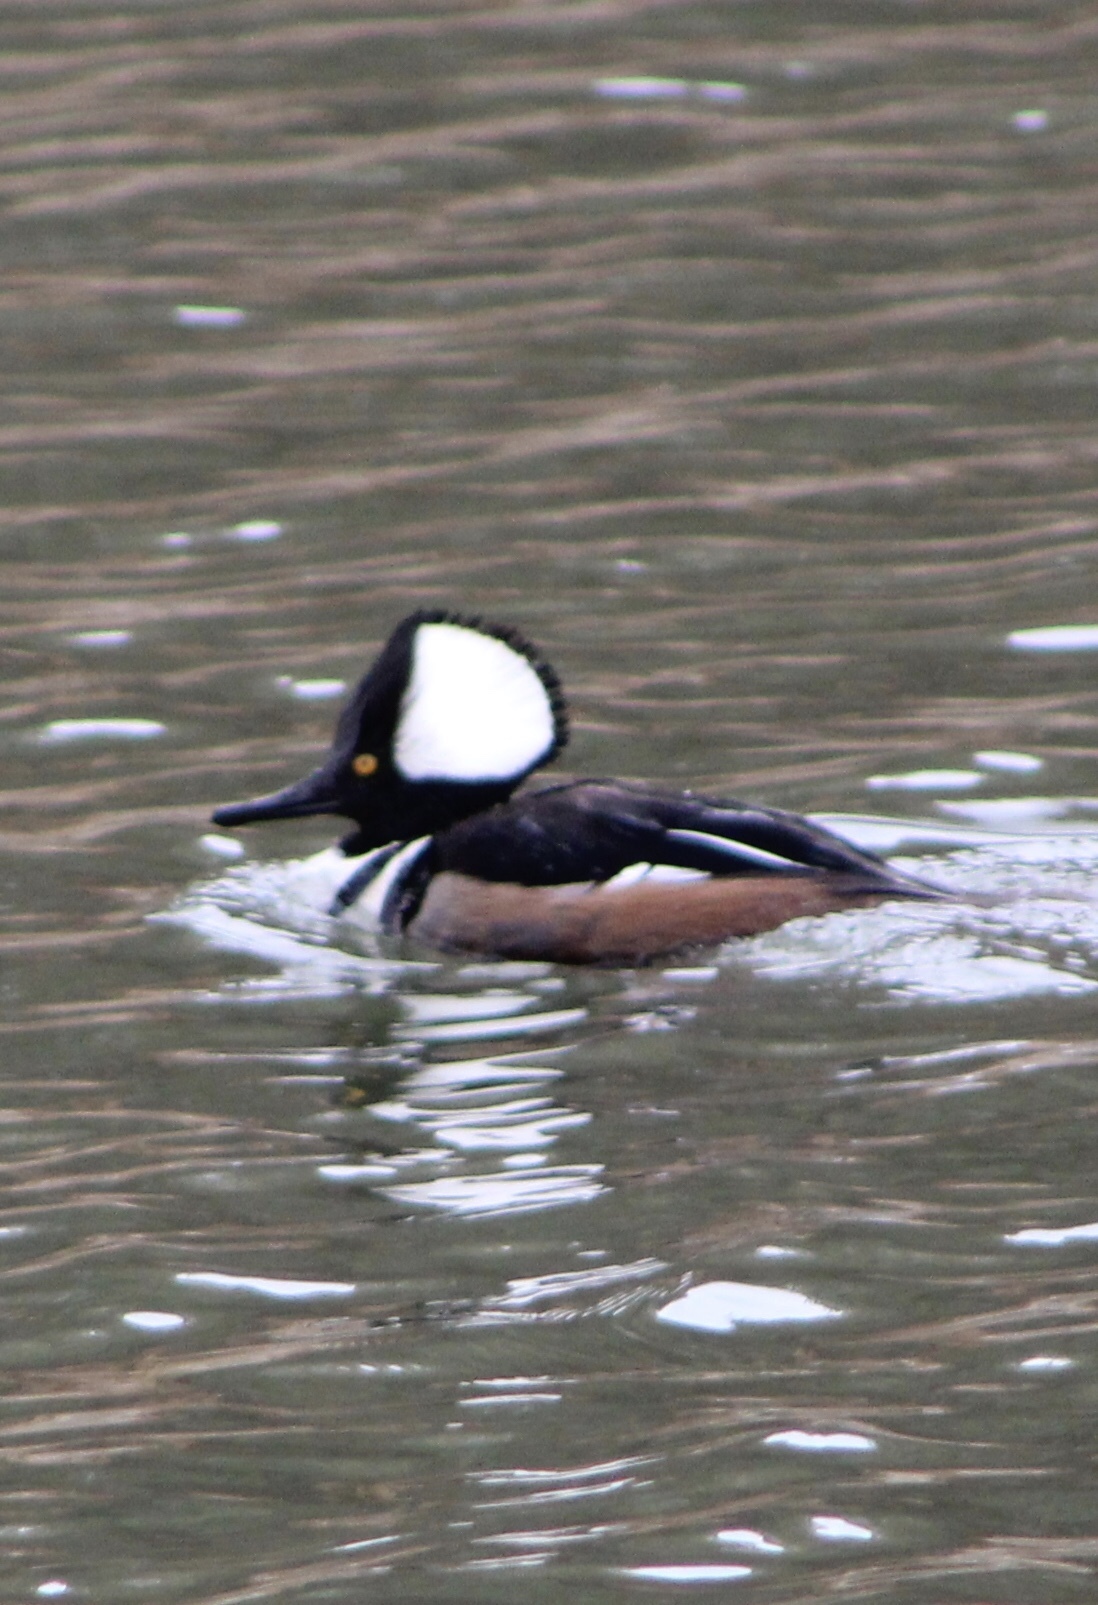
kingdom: Animalia
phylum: Chordata
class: Aves
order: Anseriformes
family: Anatidae
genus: Lophodytes
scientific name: Lophodytes cucullatus
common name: Hooded merganser
